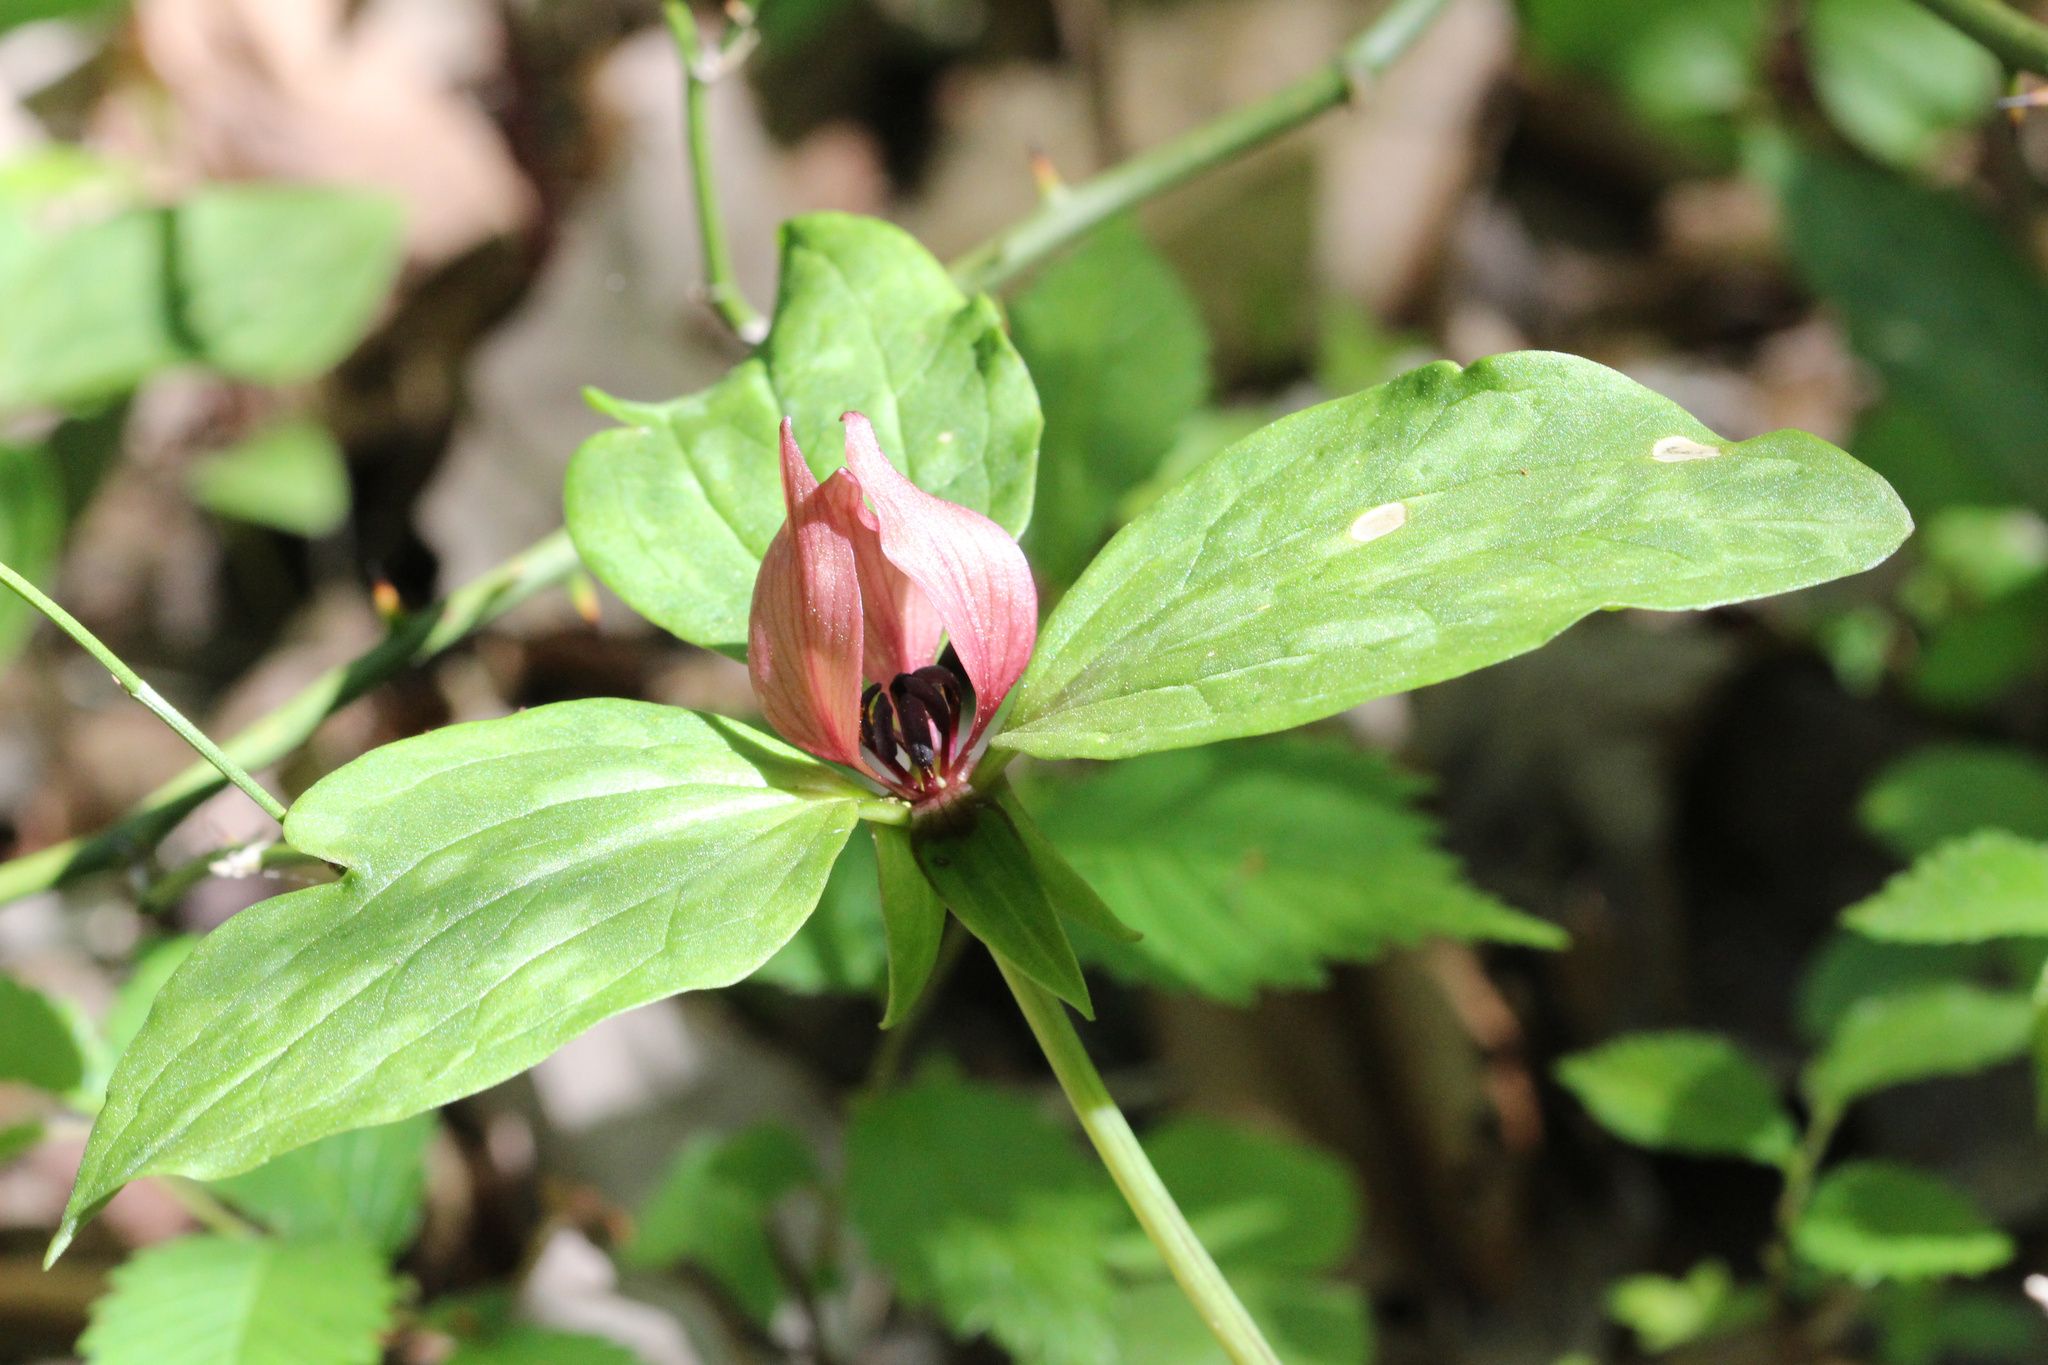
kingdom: Plantae
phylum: Tracheophyta
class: Liliopsida
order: Liliales
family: Melanthiaceae
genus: Trillium
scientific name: Trillium recurvatum
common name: Bloody butcher
